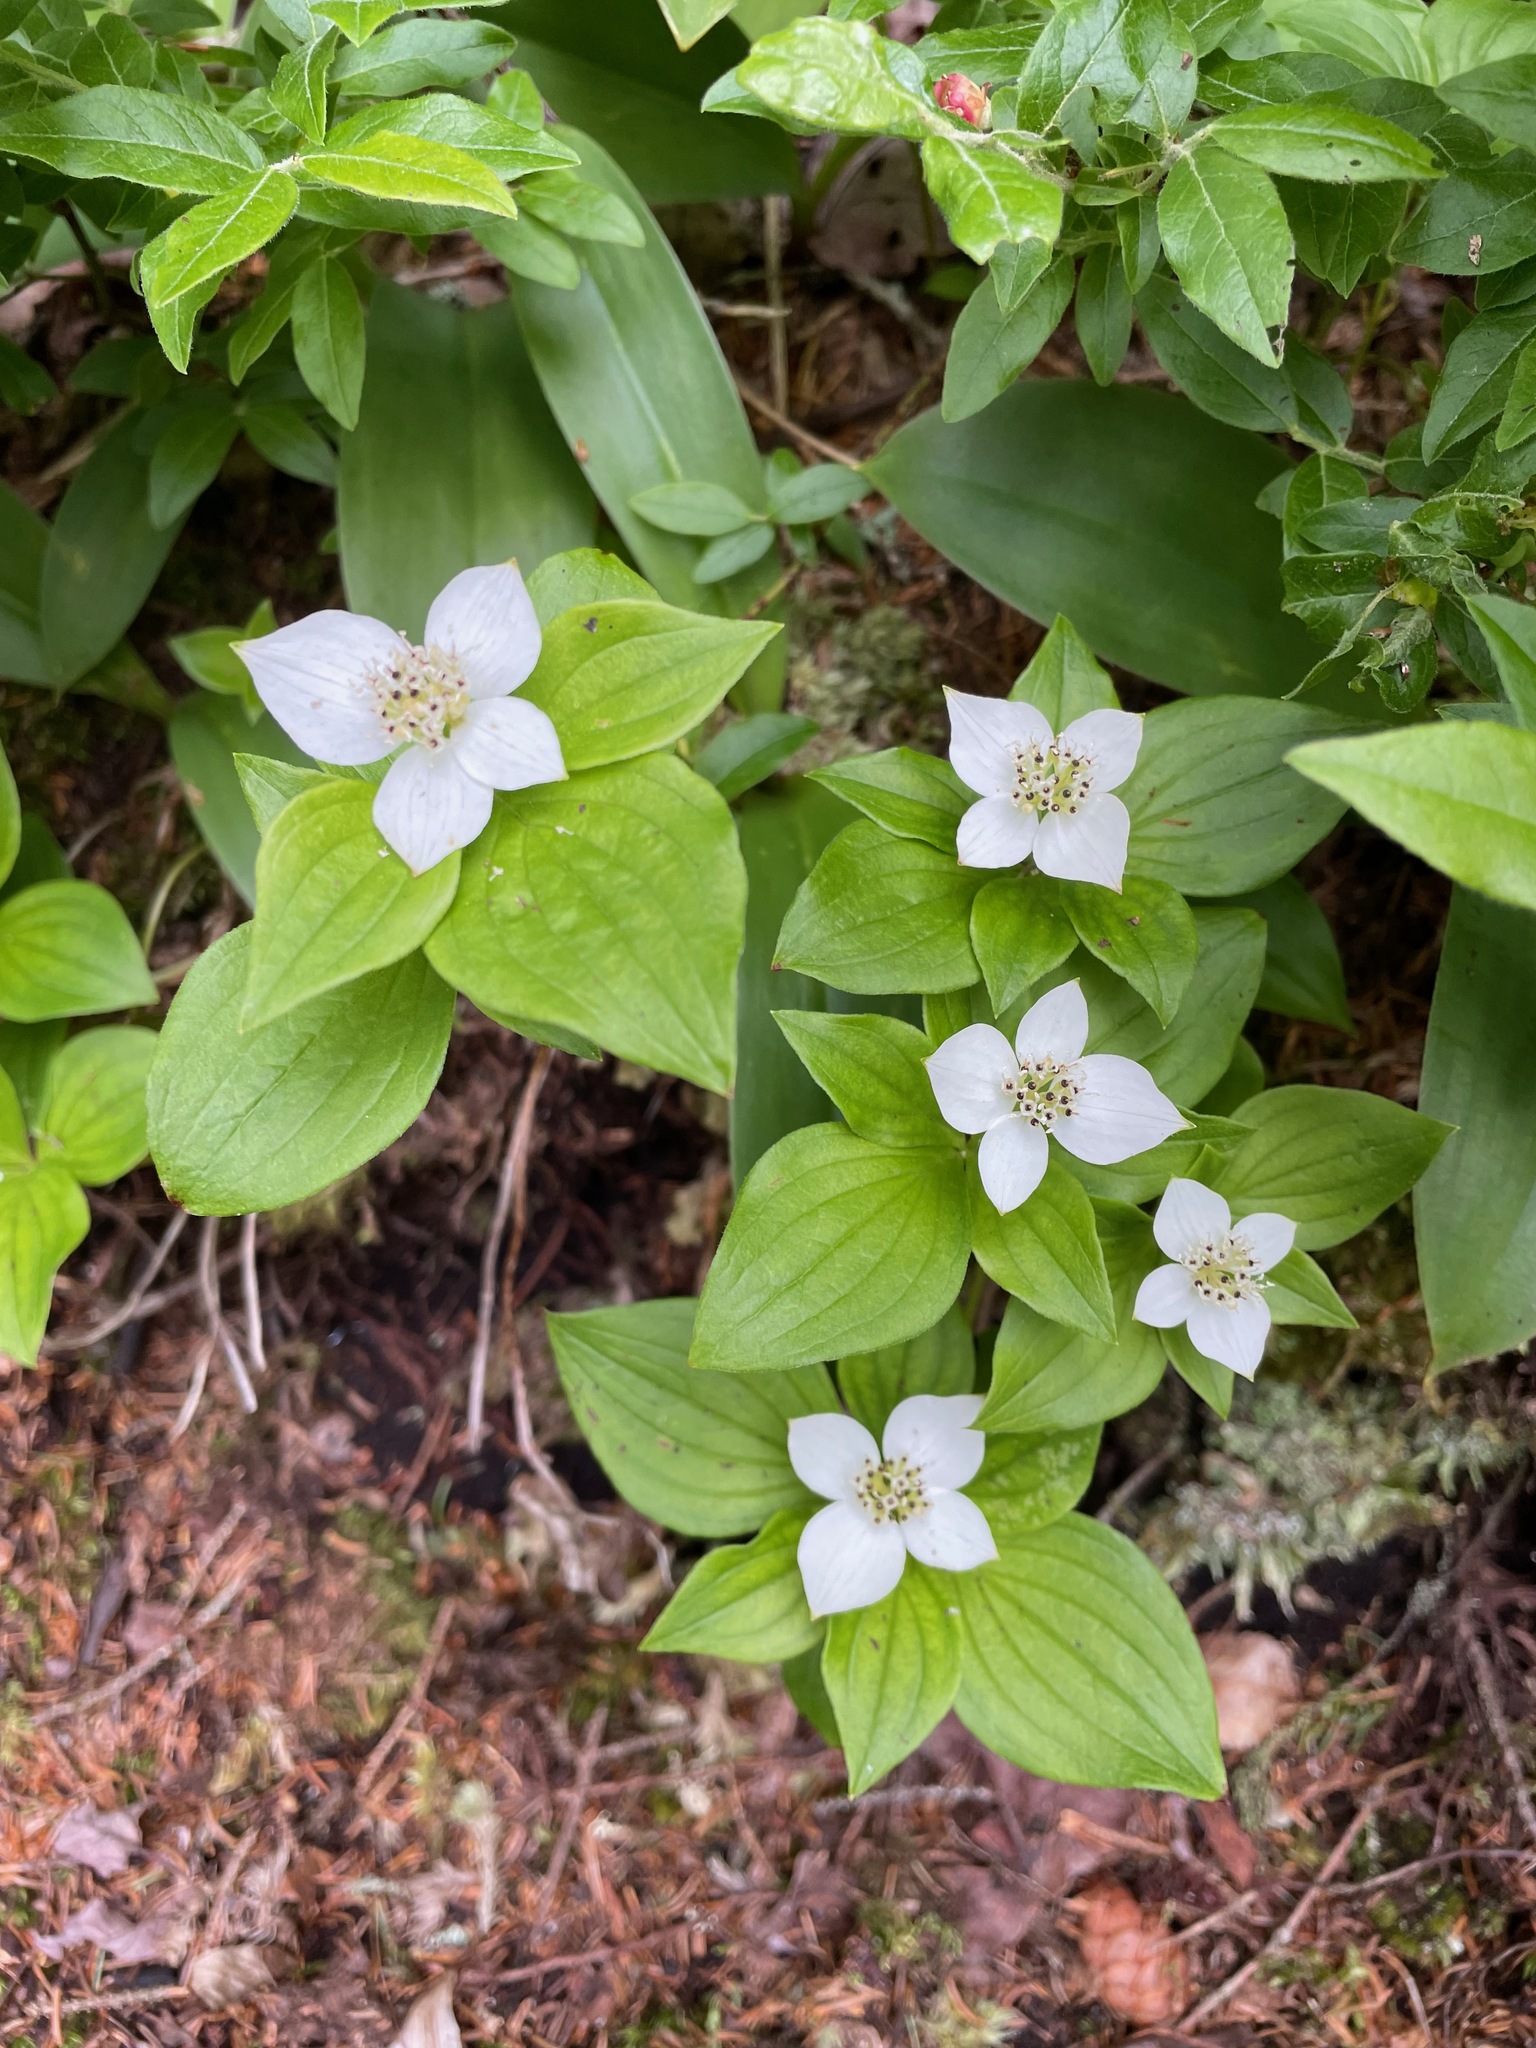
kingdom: Plantae
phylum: Tracheophyta
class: Magnoliopsida
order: Cornales
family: Cornaceae
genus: Cornus
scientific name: Cornus canadensis
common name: Creeping dogwood
